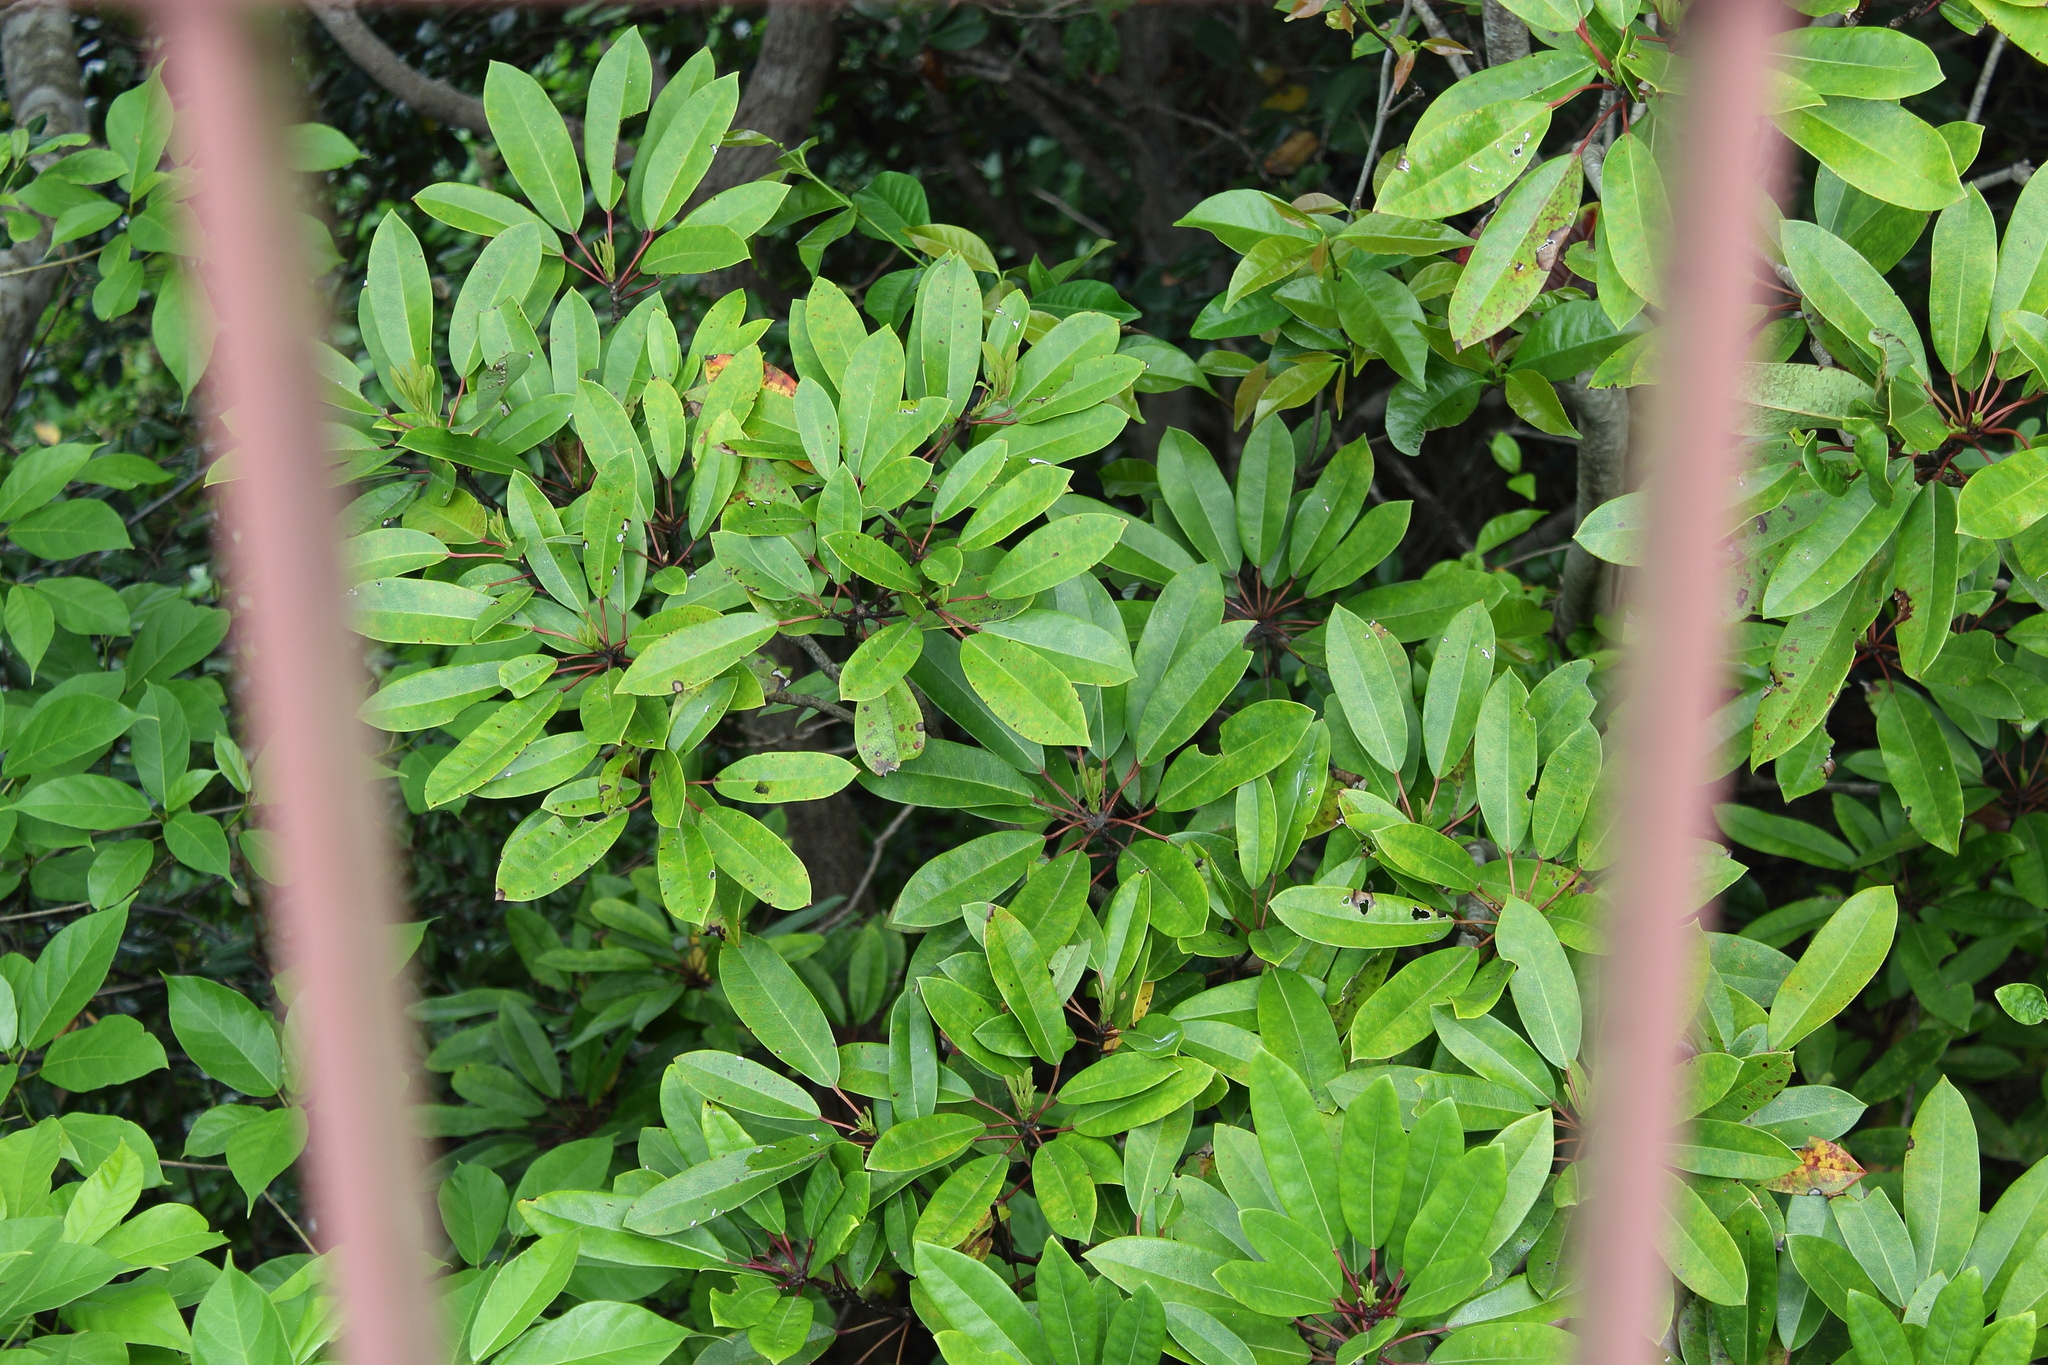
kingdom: Plantae
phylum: Tracheophyta
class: Magnoliopsida
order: Saxifragales
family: Daphniphyllaceae
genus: Daphniphyllum
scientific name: Daphniphyllum teijsmannii
